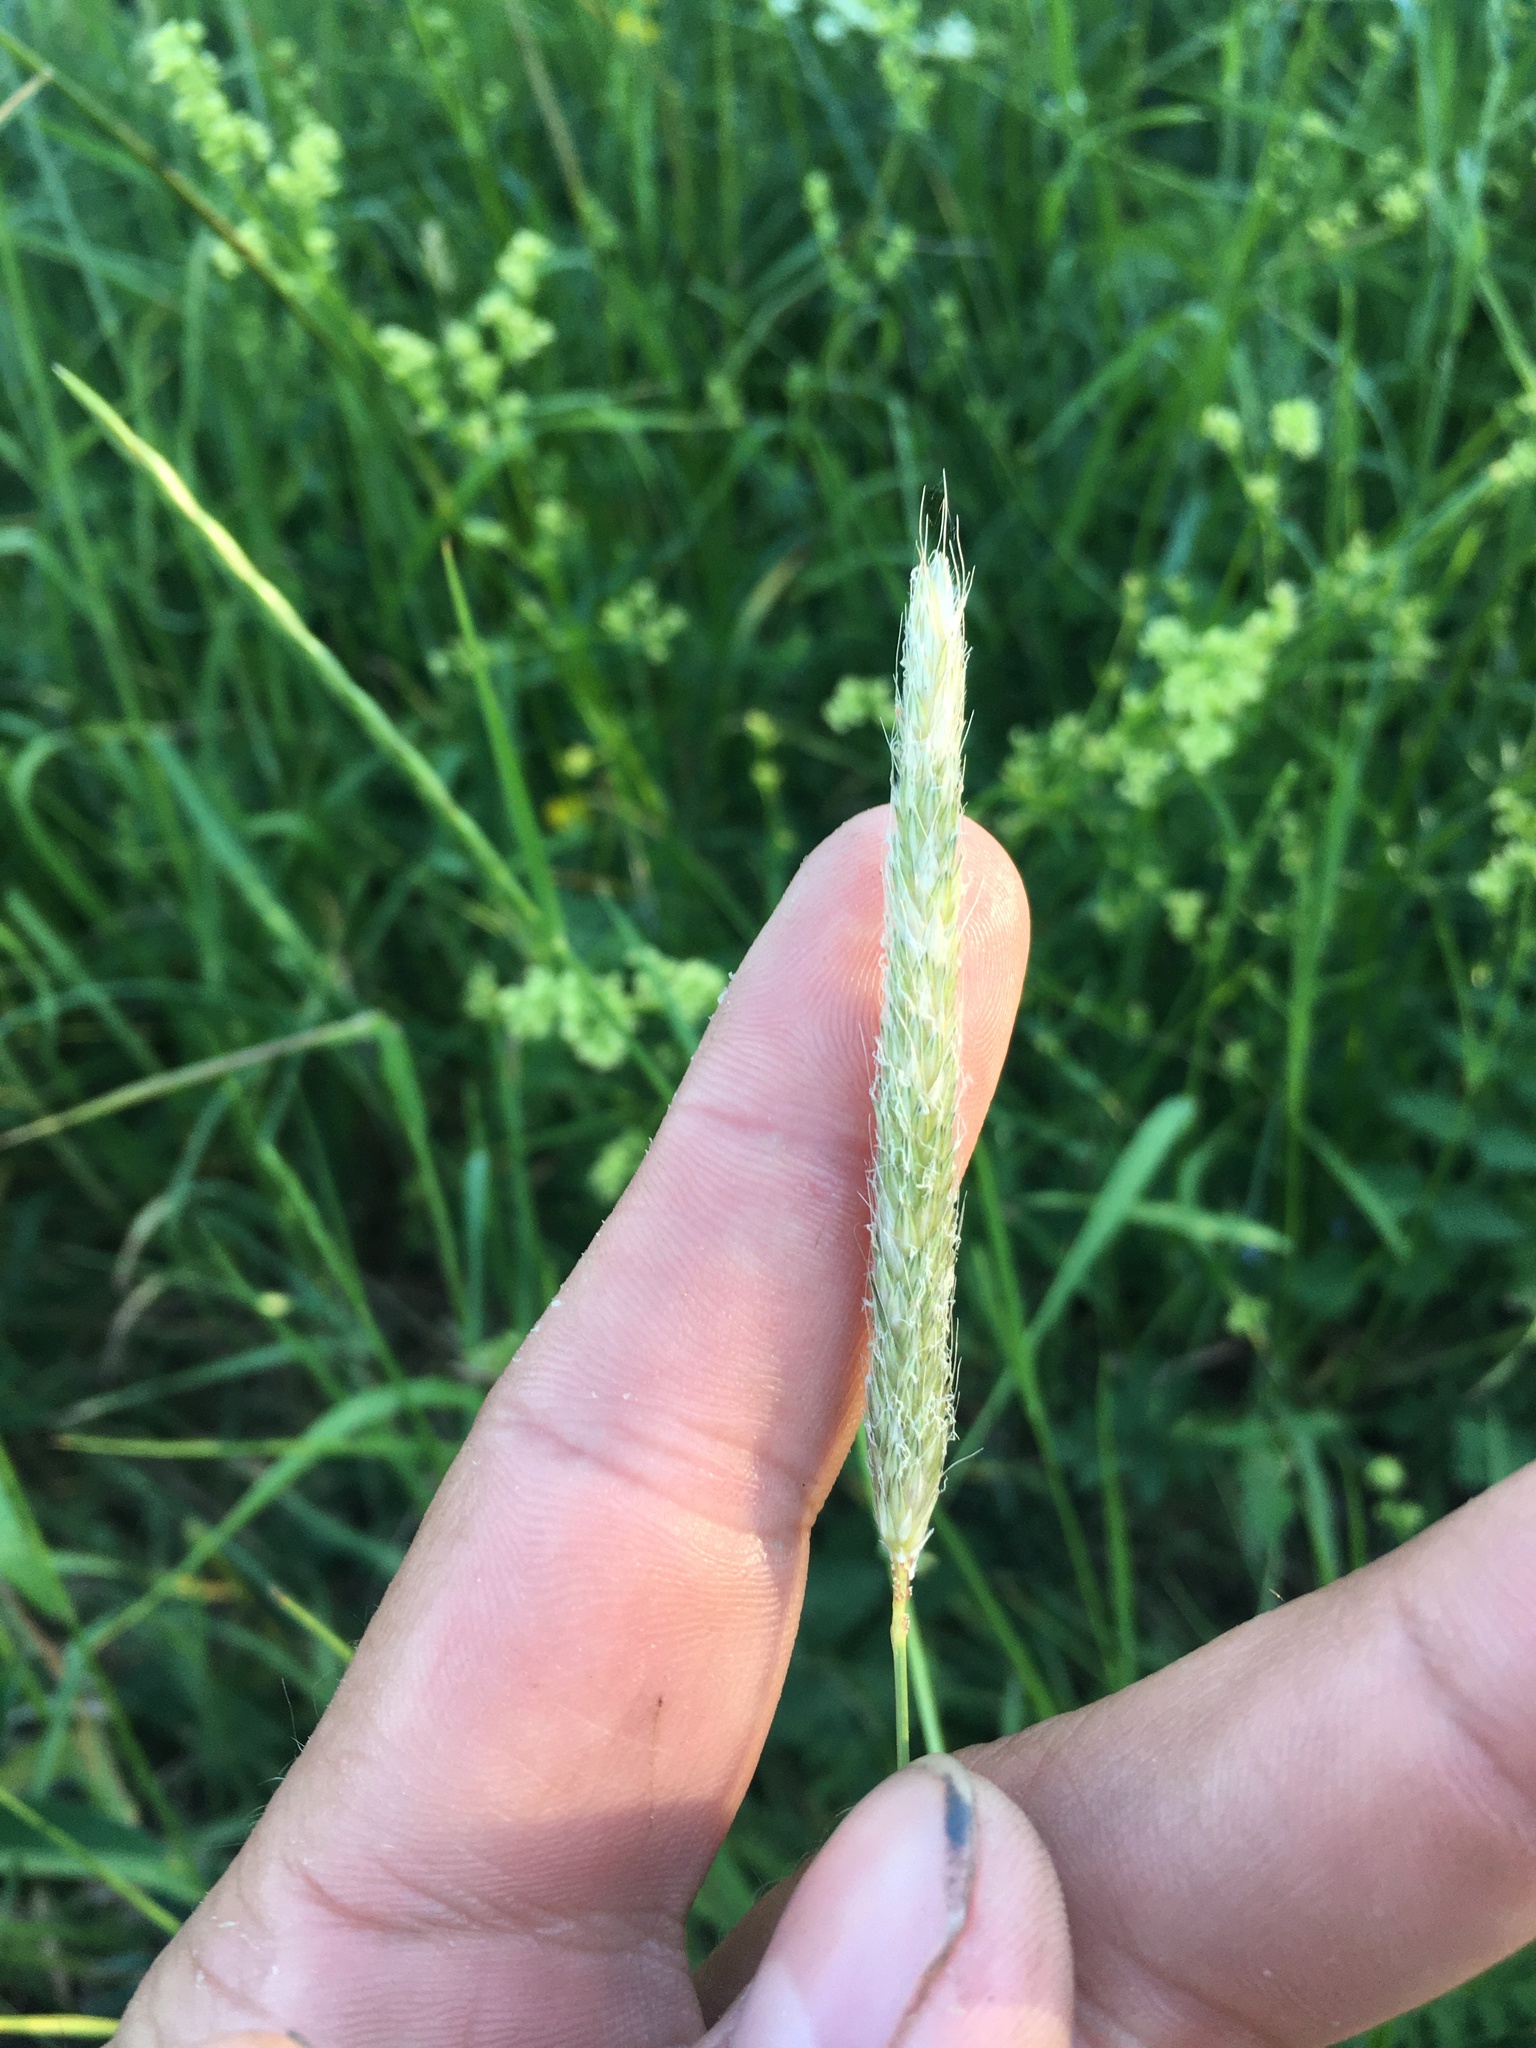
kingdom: Plantae
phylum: Tracheophyta
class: Liliopsida
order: Poales
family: Poaceae
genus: Alopecurus
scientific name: Alopecurus pratensis
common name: Meadow foxtail
